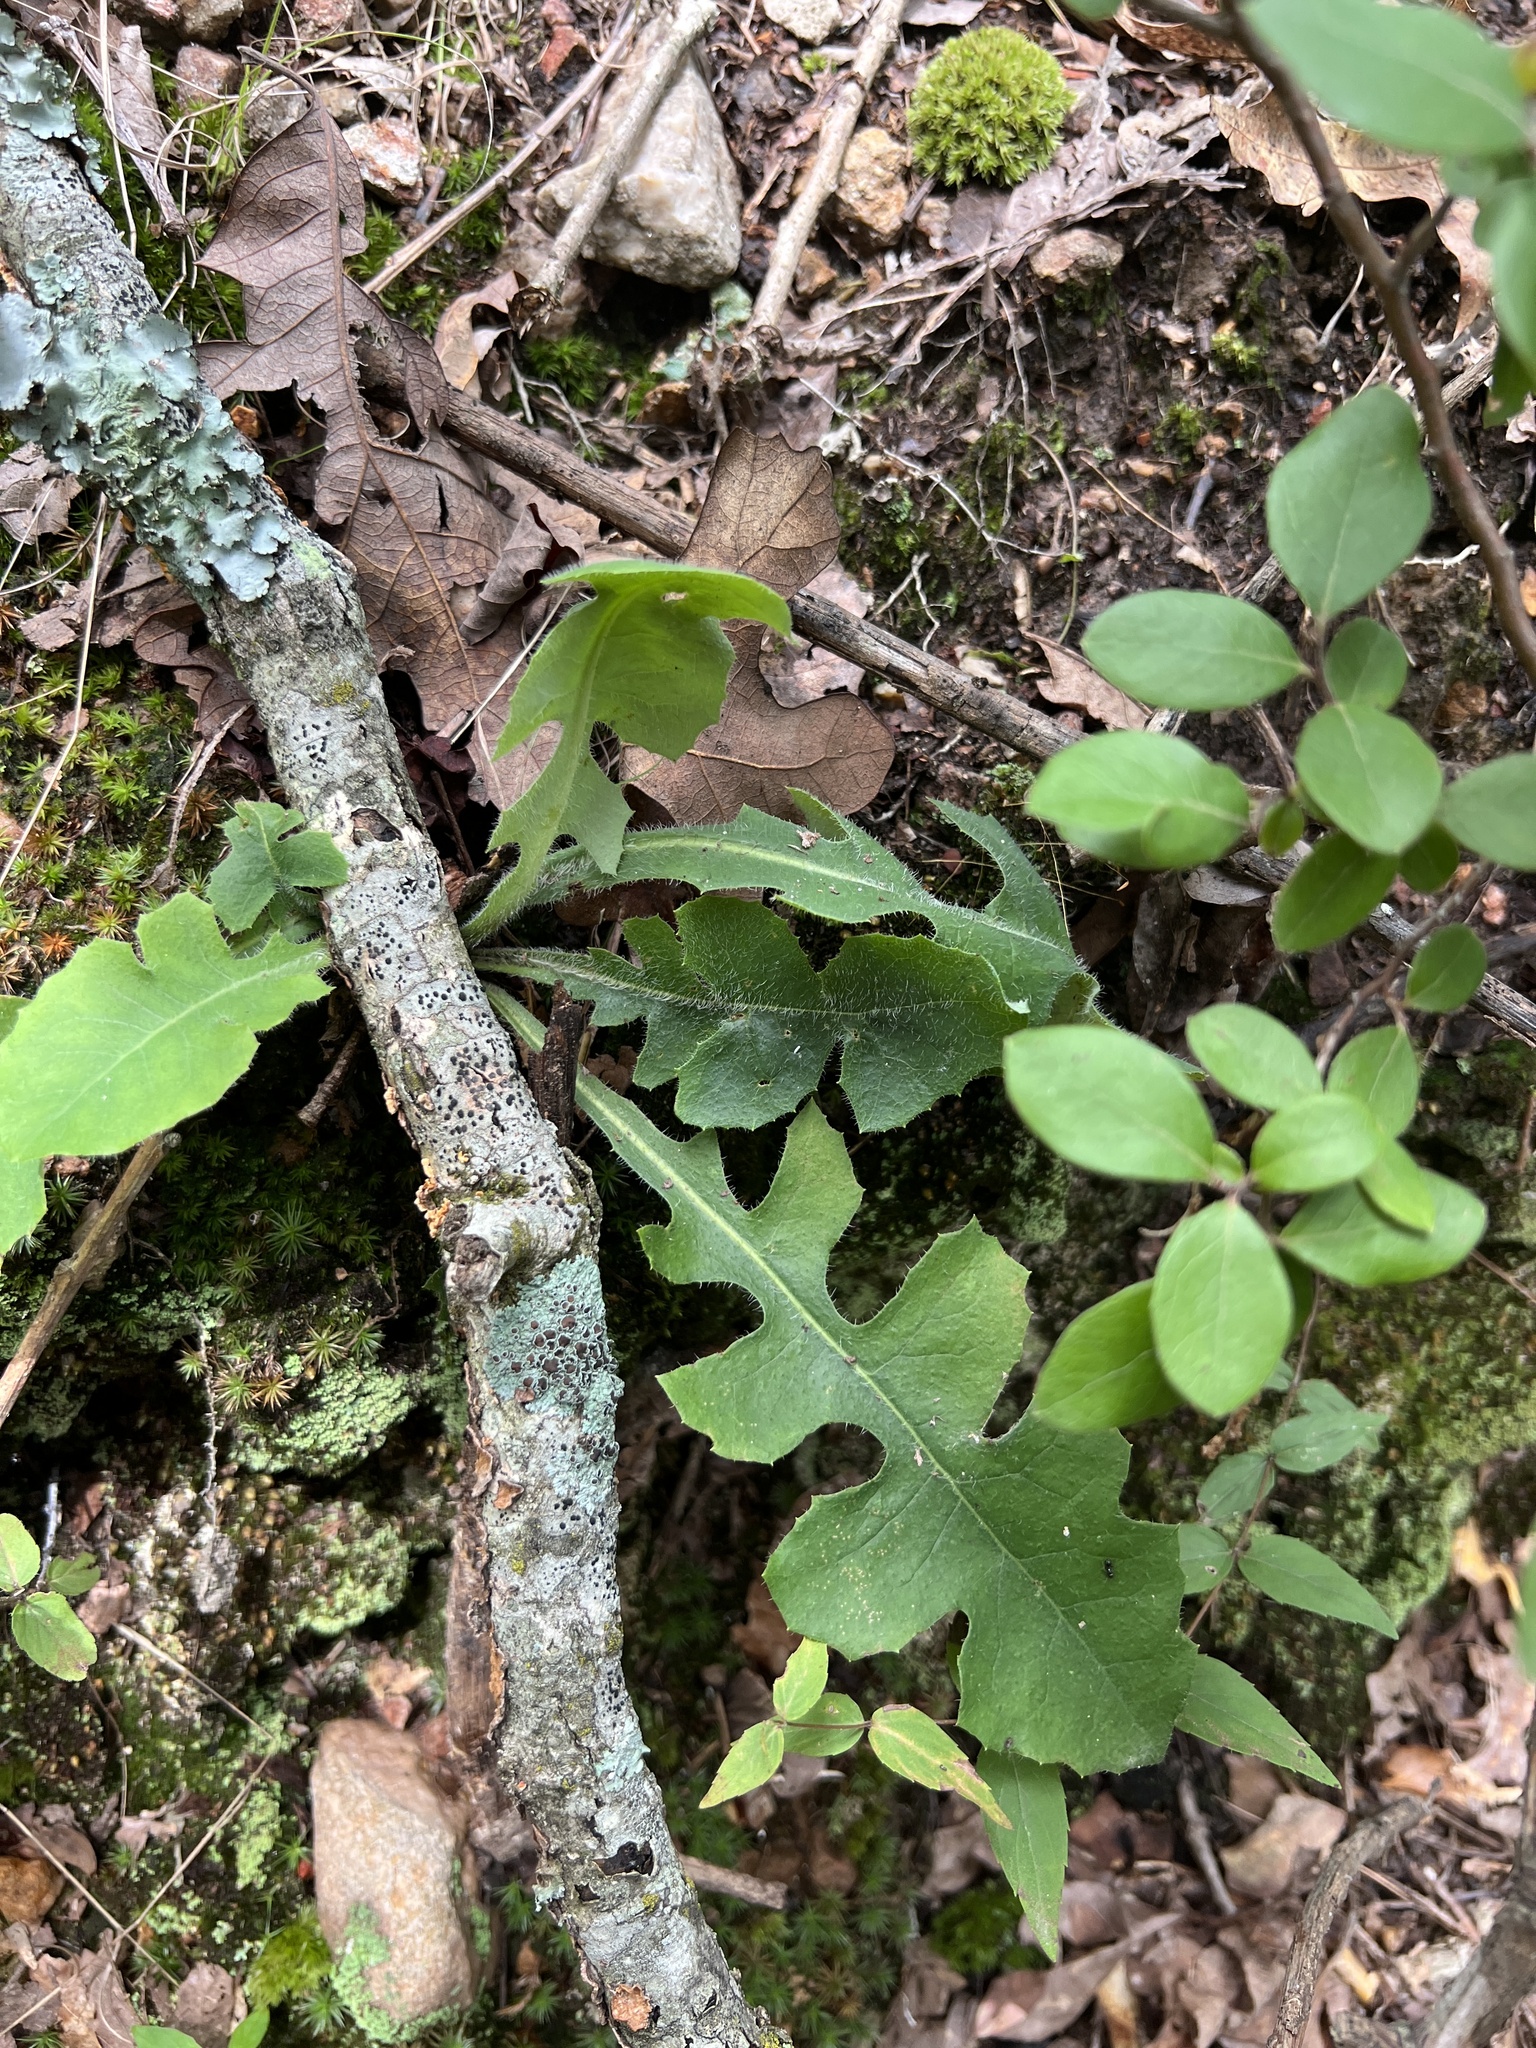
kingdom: Plantae
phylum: Tracheophyta
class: Magnoliopsida
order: Asterales
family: Asteraceae
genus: Lactuca
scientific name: Lactuca hirsuta
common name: Hairy lettuce
